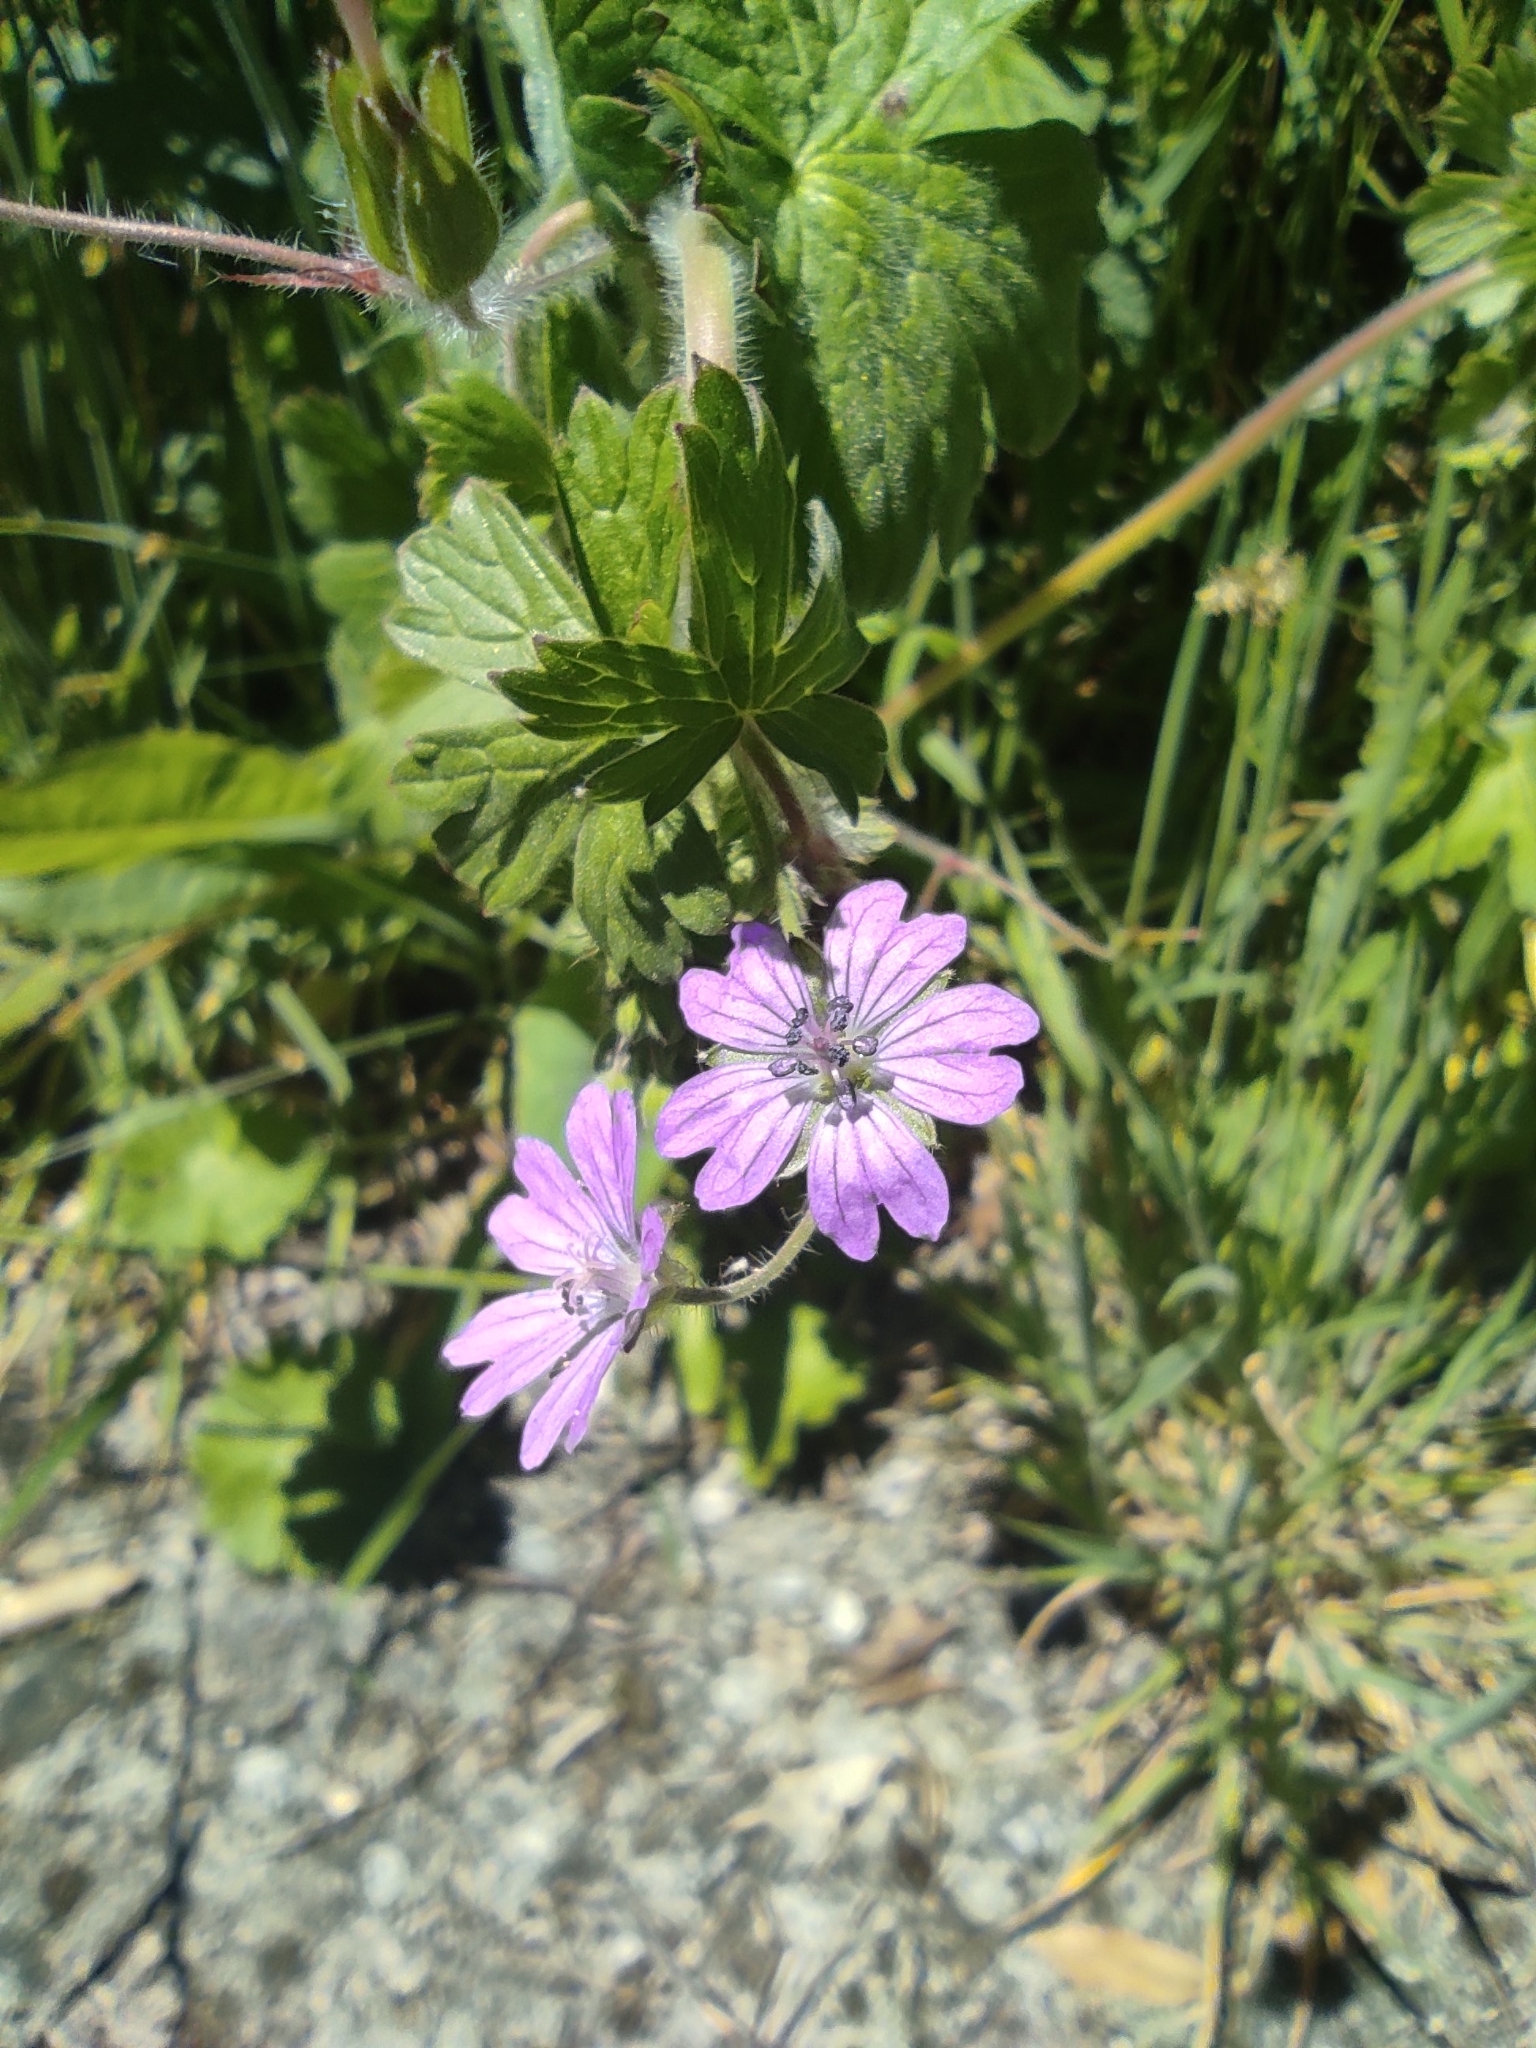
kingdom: Plantae
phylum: Tracheophyta
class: Magnoliopsida
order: Geraniales
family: Geraniaceae
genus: Geranium
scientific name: Geranium molle
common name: Dove's-foot crane's-bill
